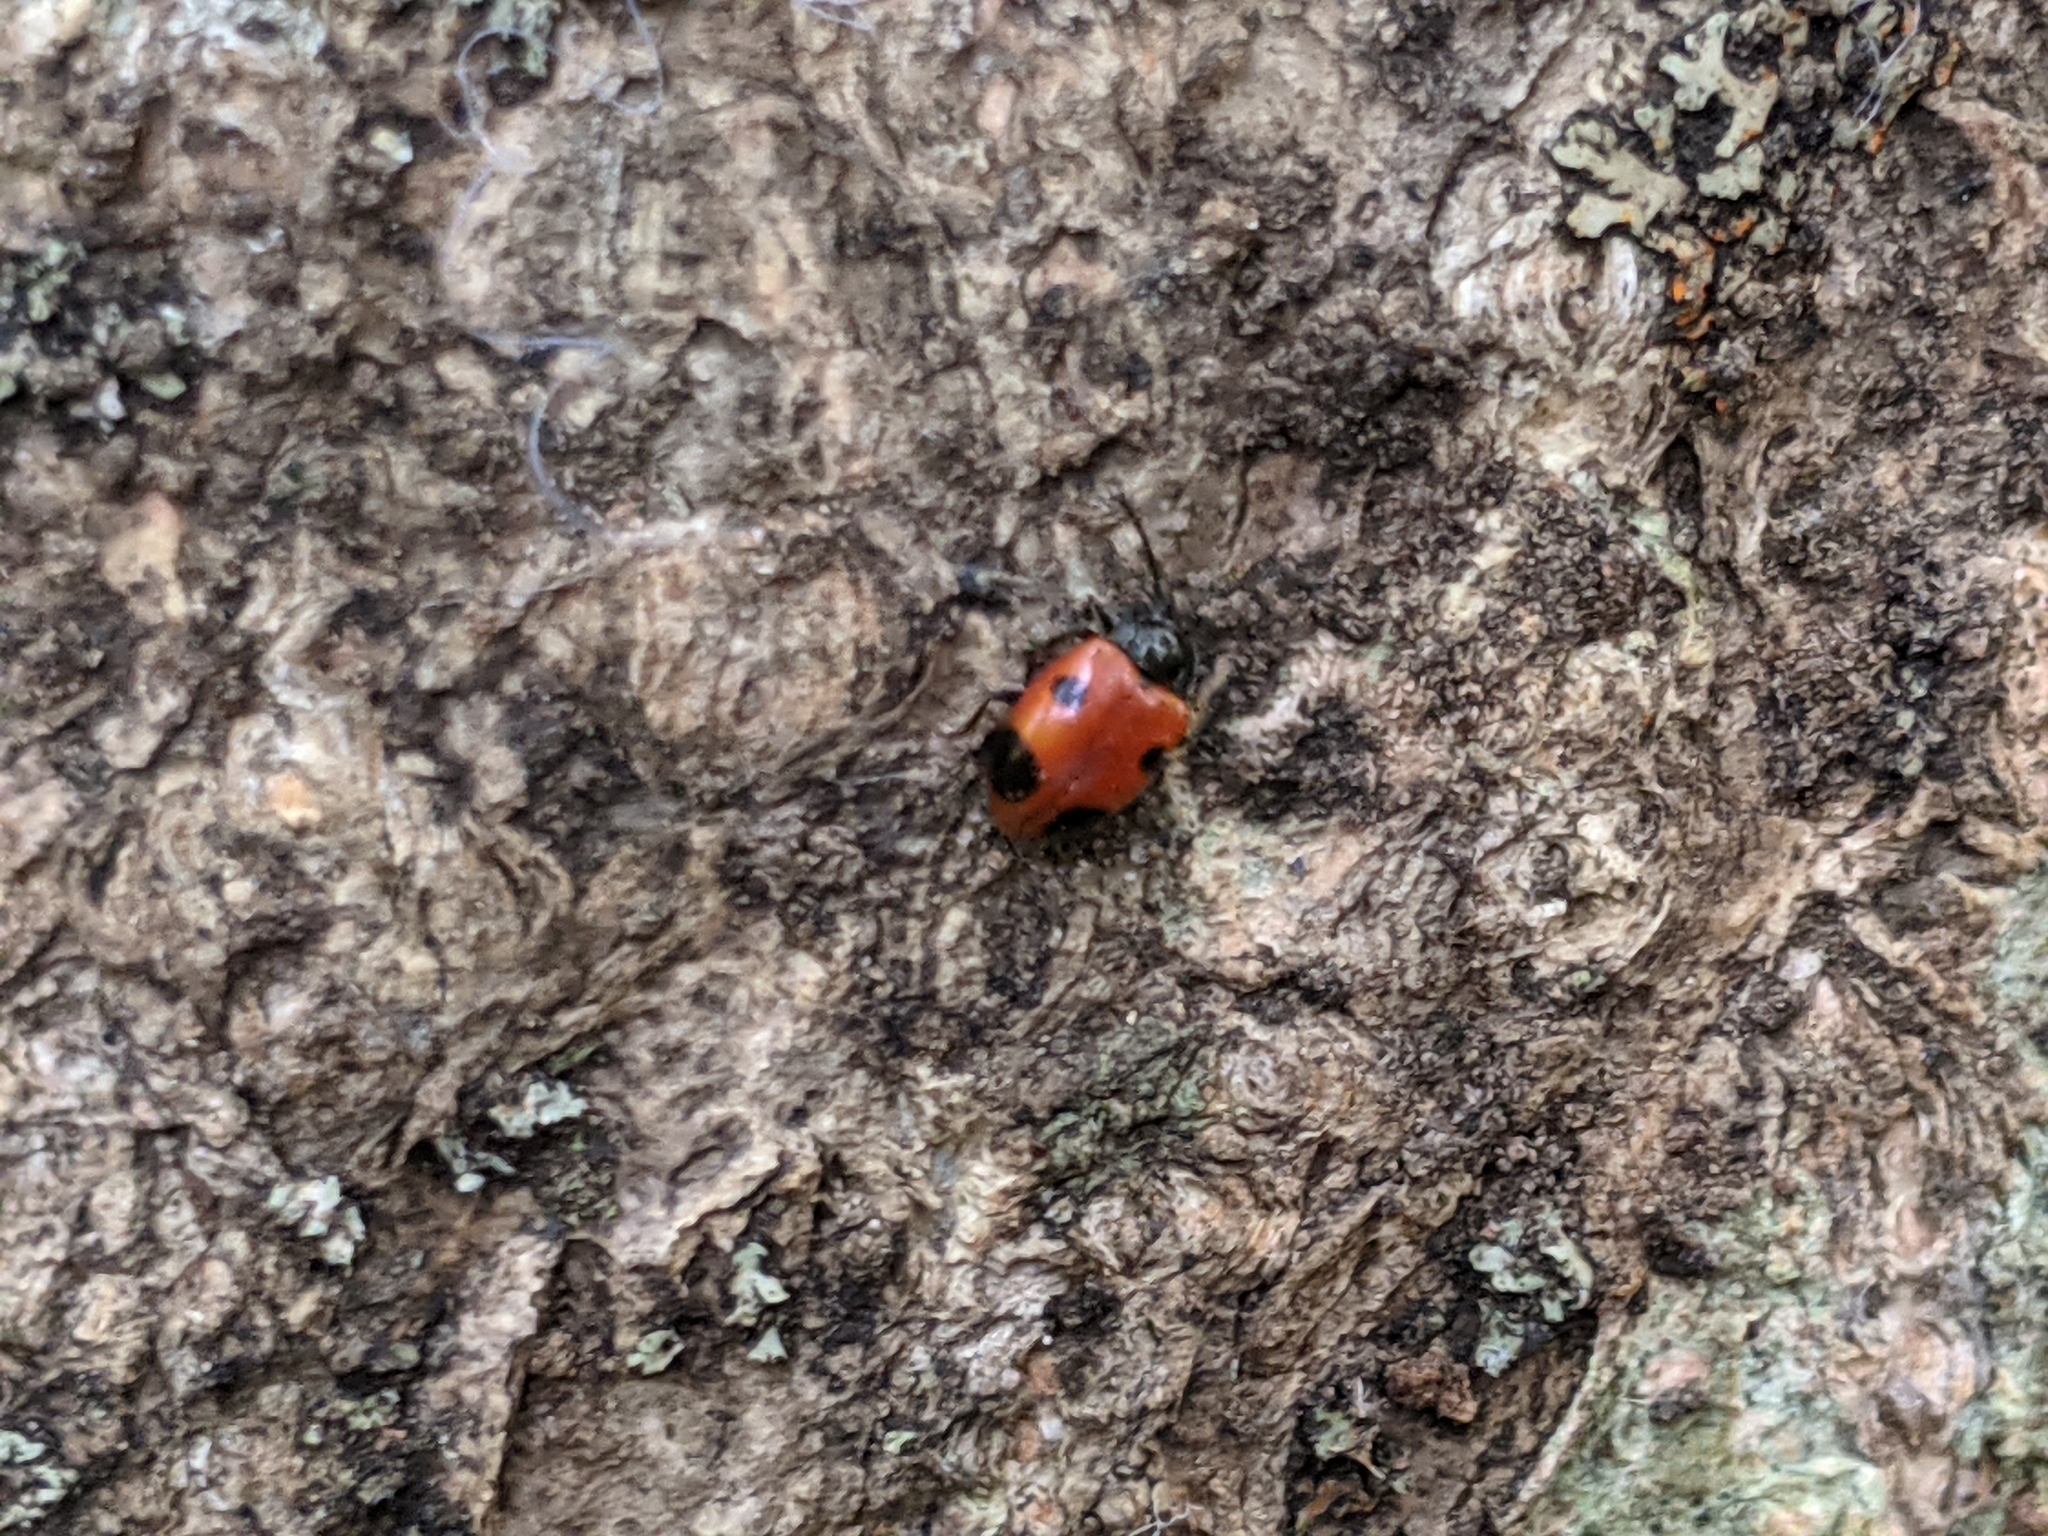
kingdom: Animalia
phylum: Arthropoda
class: Insecta
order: Coleoptera
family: Endomychidae
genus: Endomychus
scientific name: Endomychus biguttatus
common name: Handsome fungus beetle
